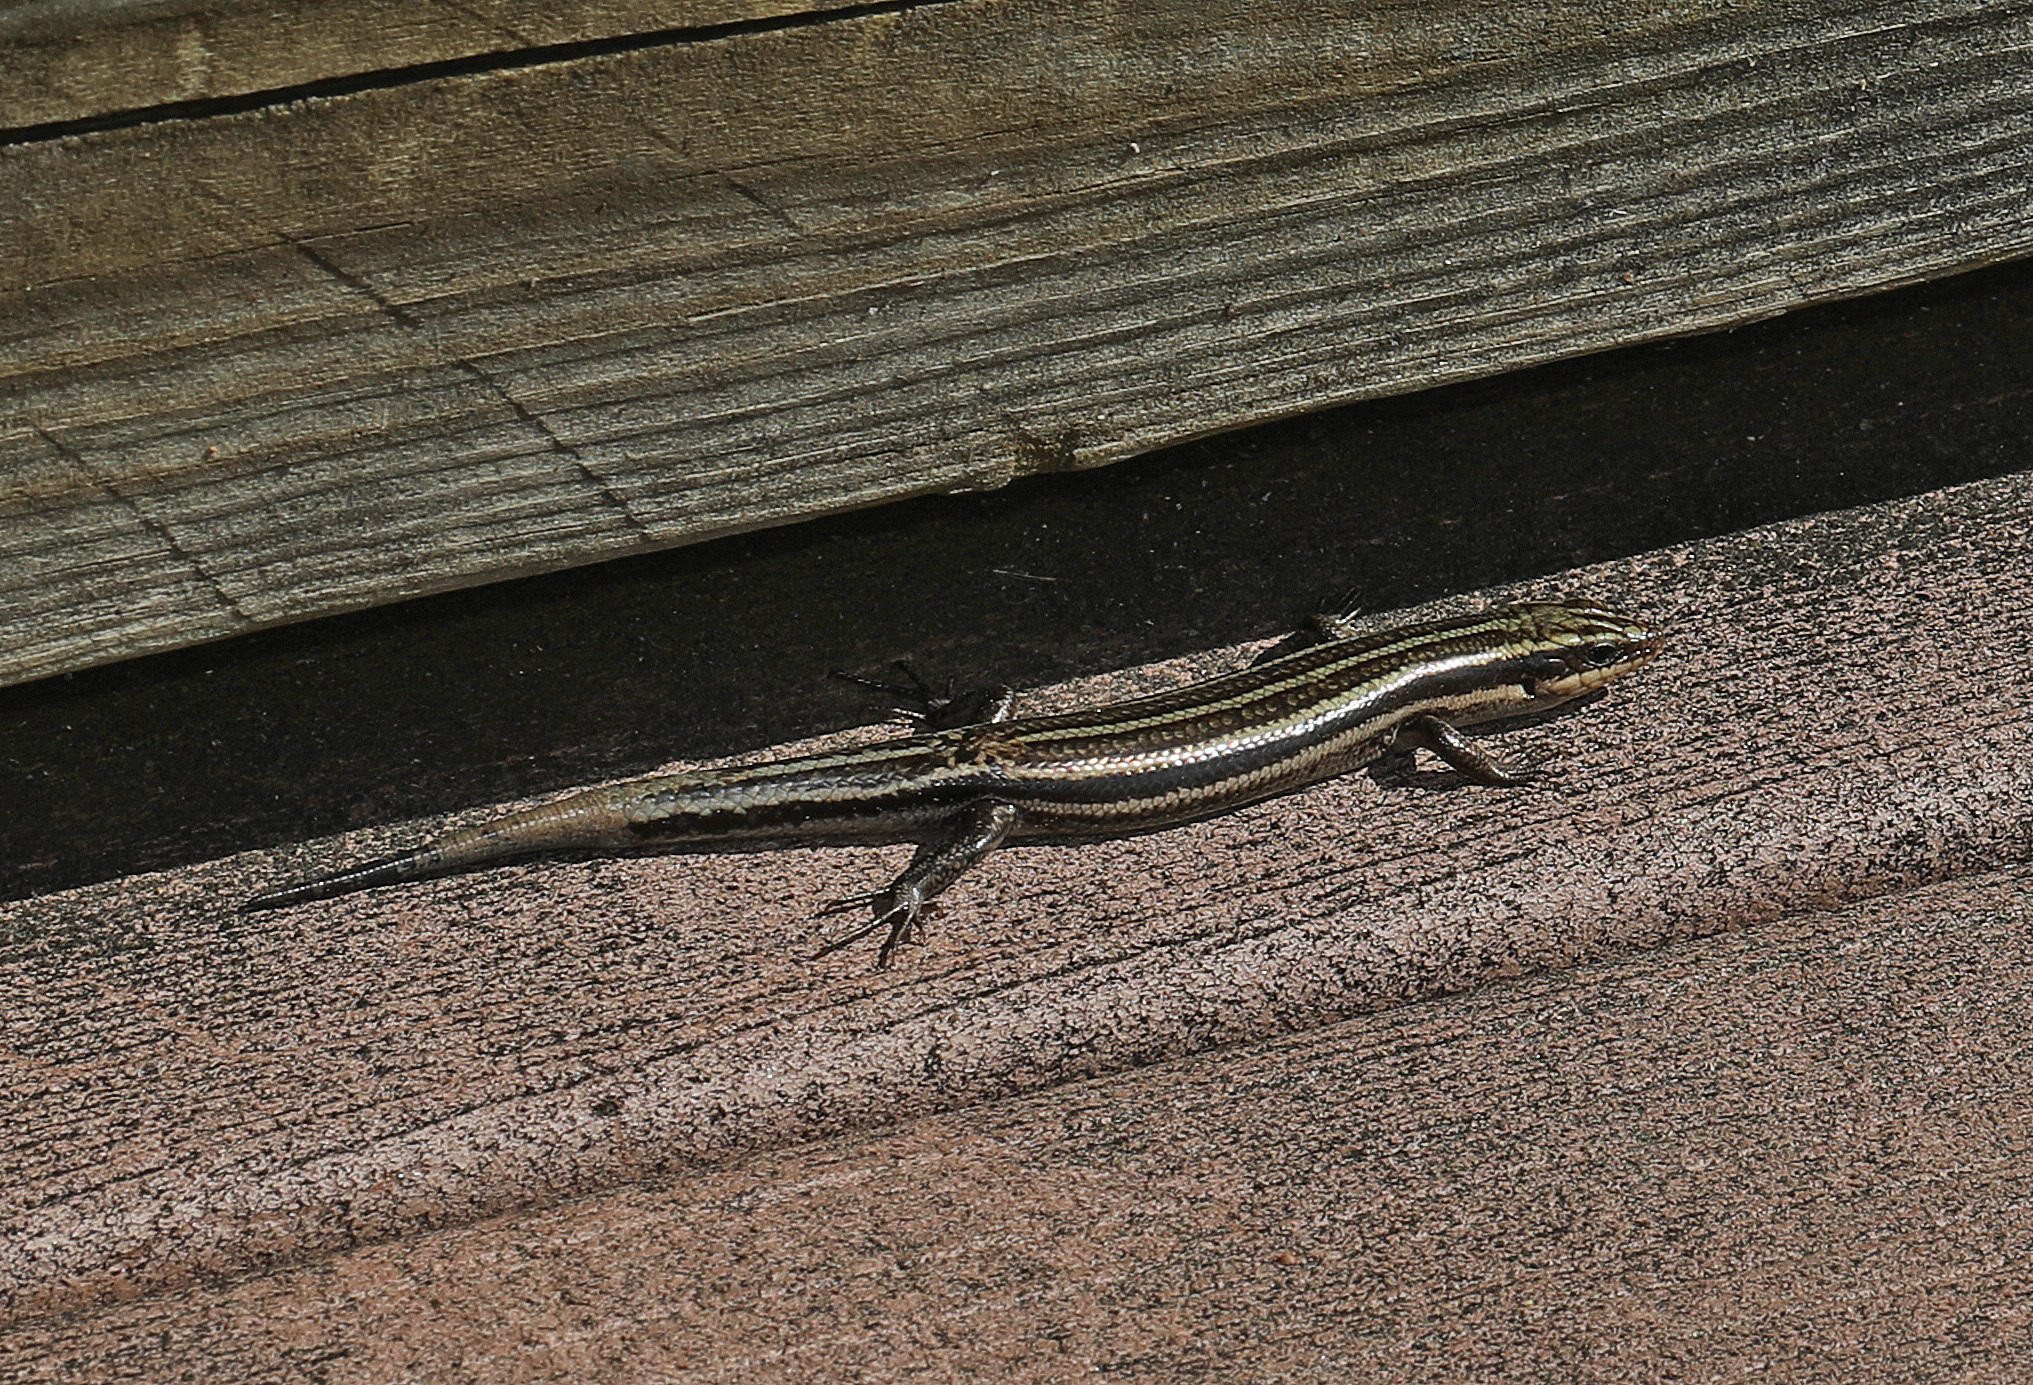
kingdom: Animalia
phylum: Chordata
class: Squamata
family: Scincidae
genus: Plestiodon
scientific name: Plestiodon fasciatus
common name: Five-lined skink
